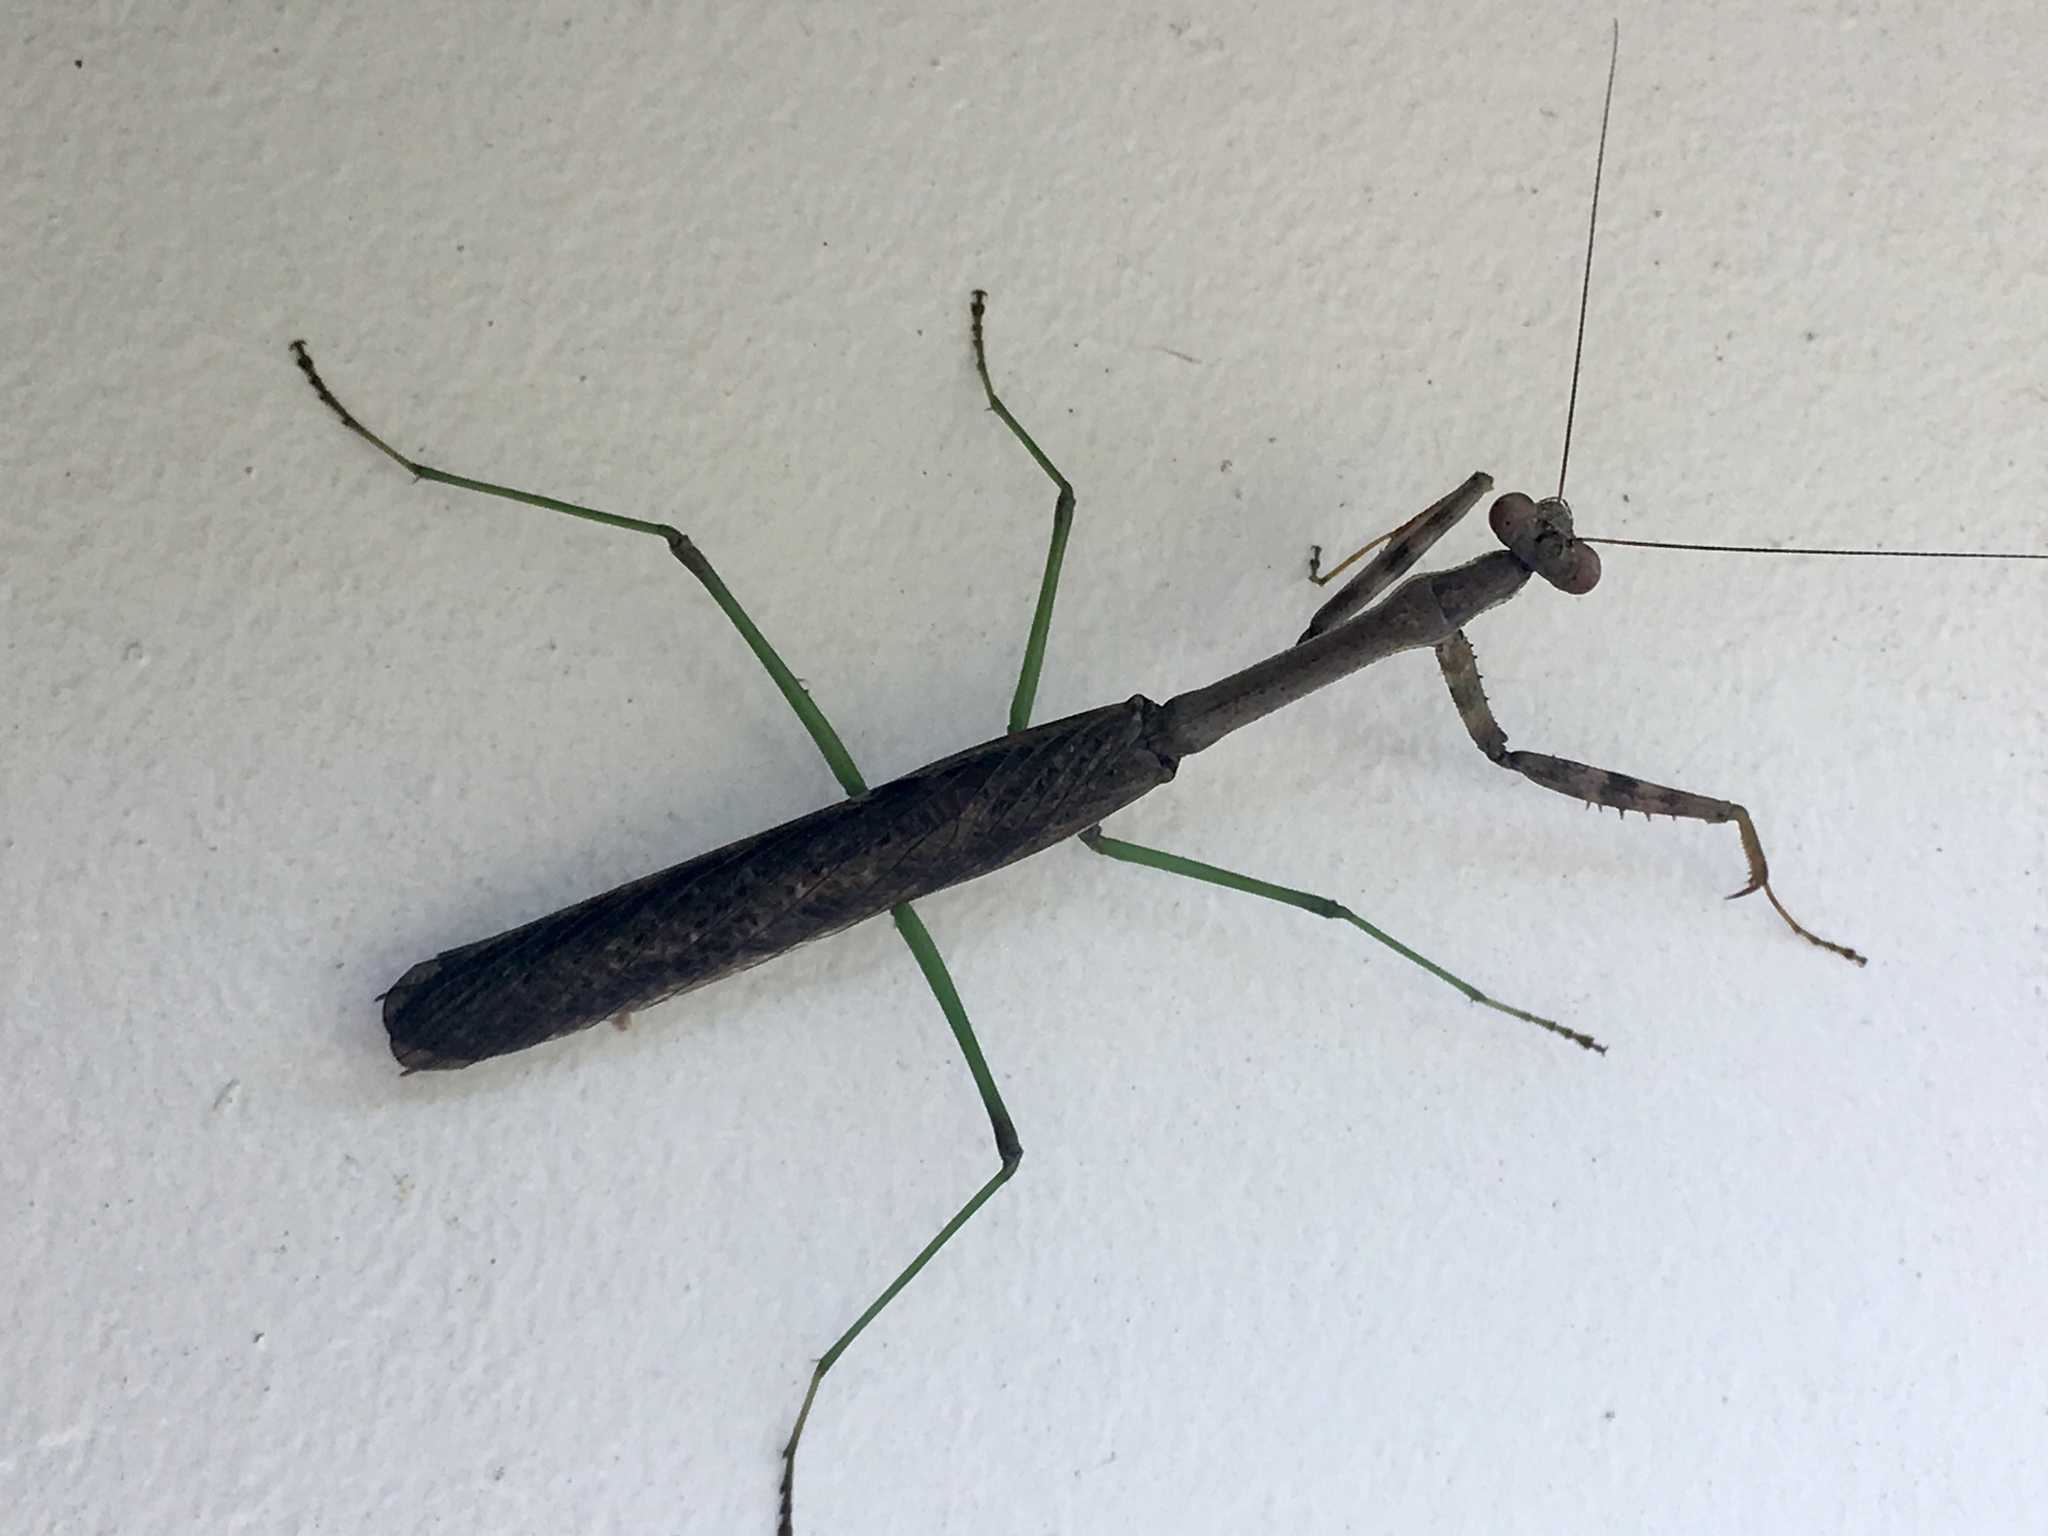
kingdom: Animalia
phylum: Arthropoda
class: Insecta
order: Mantodea
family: Mantidae
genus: Stagmomantis
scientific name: Stagmomantis carolina
